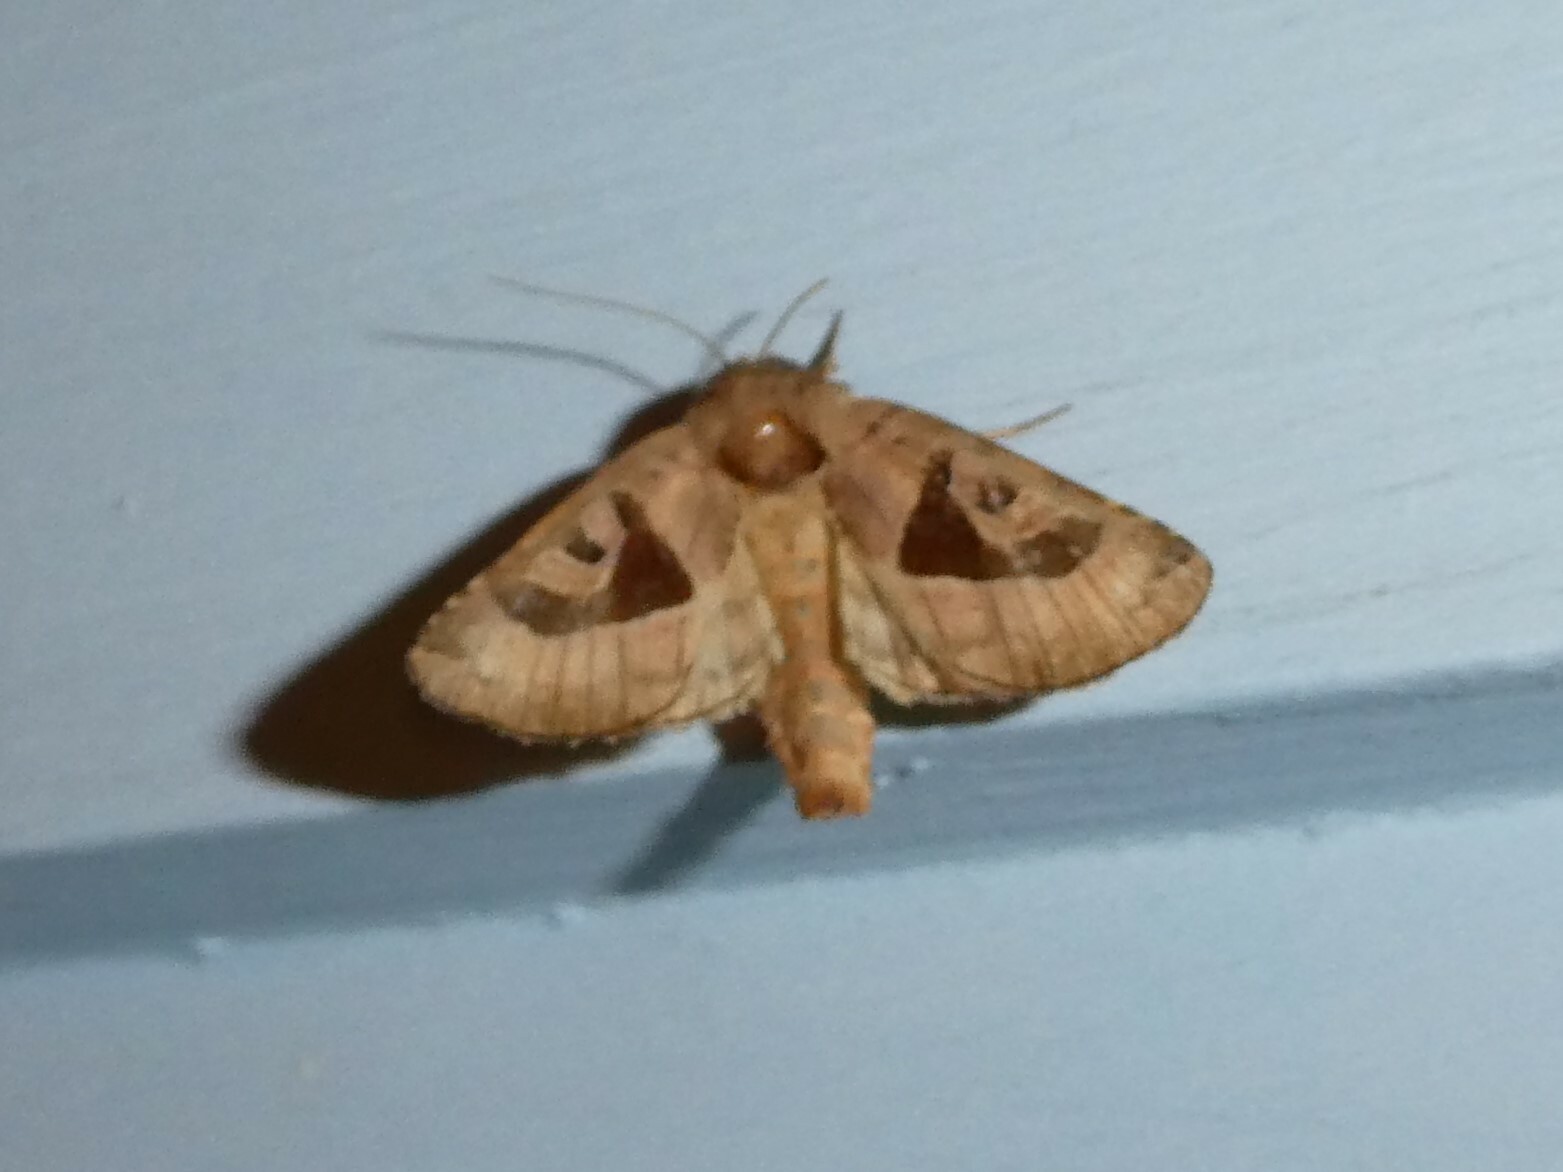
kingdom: Animalia
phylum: Arthropoda
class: Insecta
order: Lepidoptera
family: Noctuidae
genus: Conservula
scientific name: Conservula anodonta
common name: Sharp angle shades
